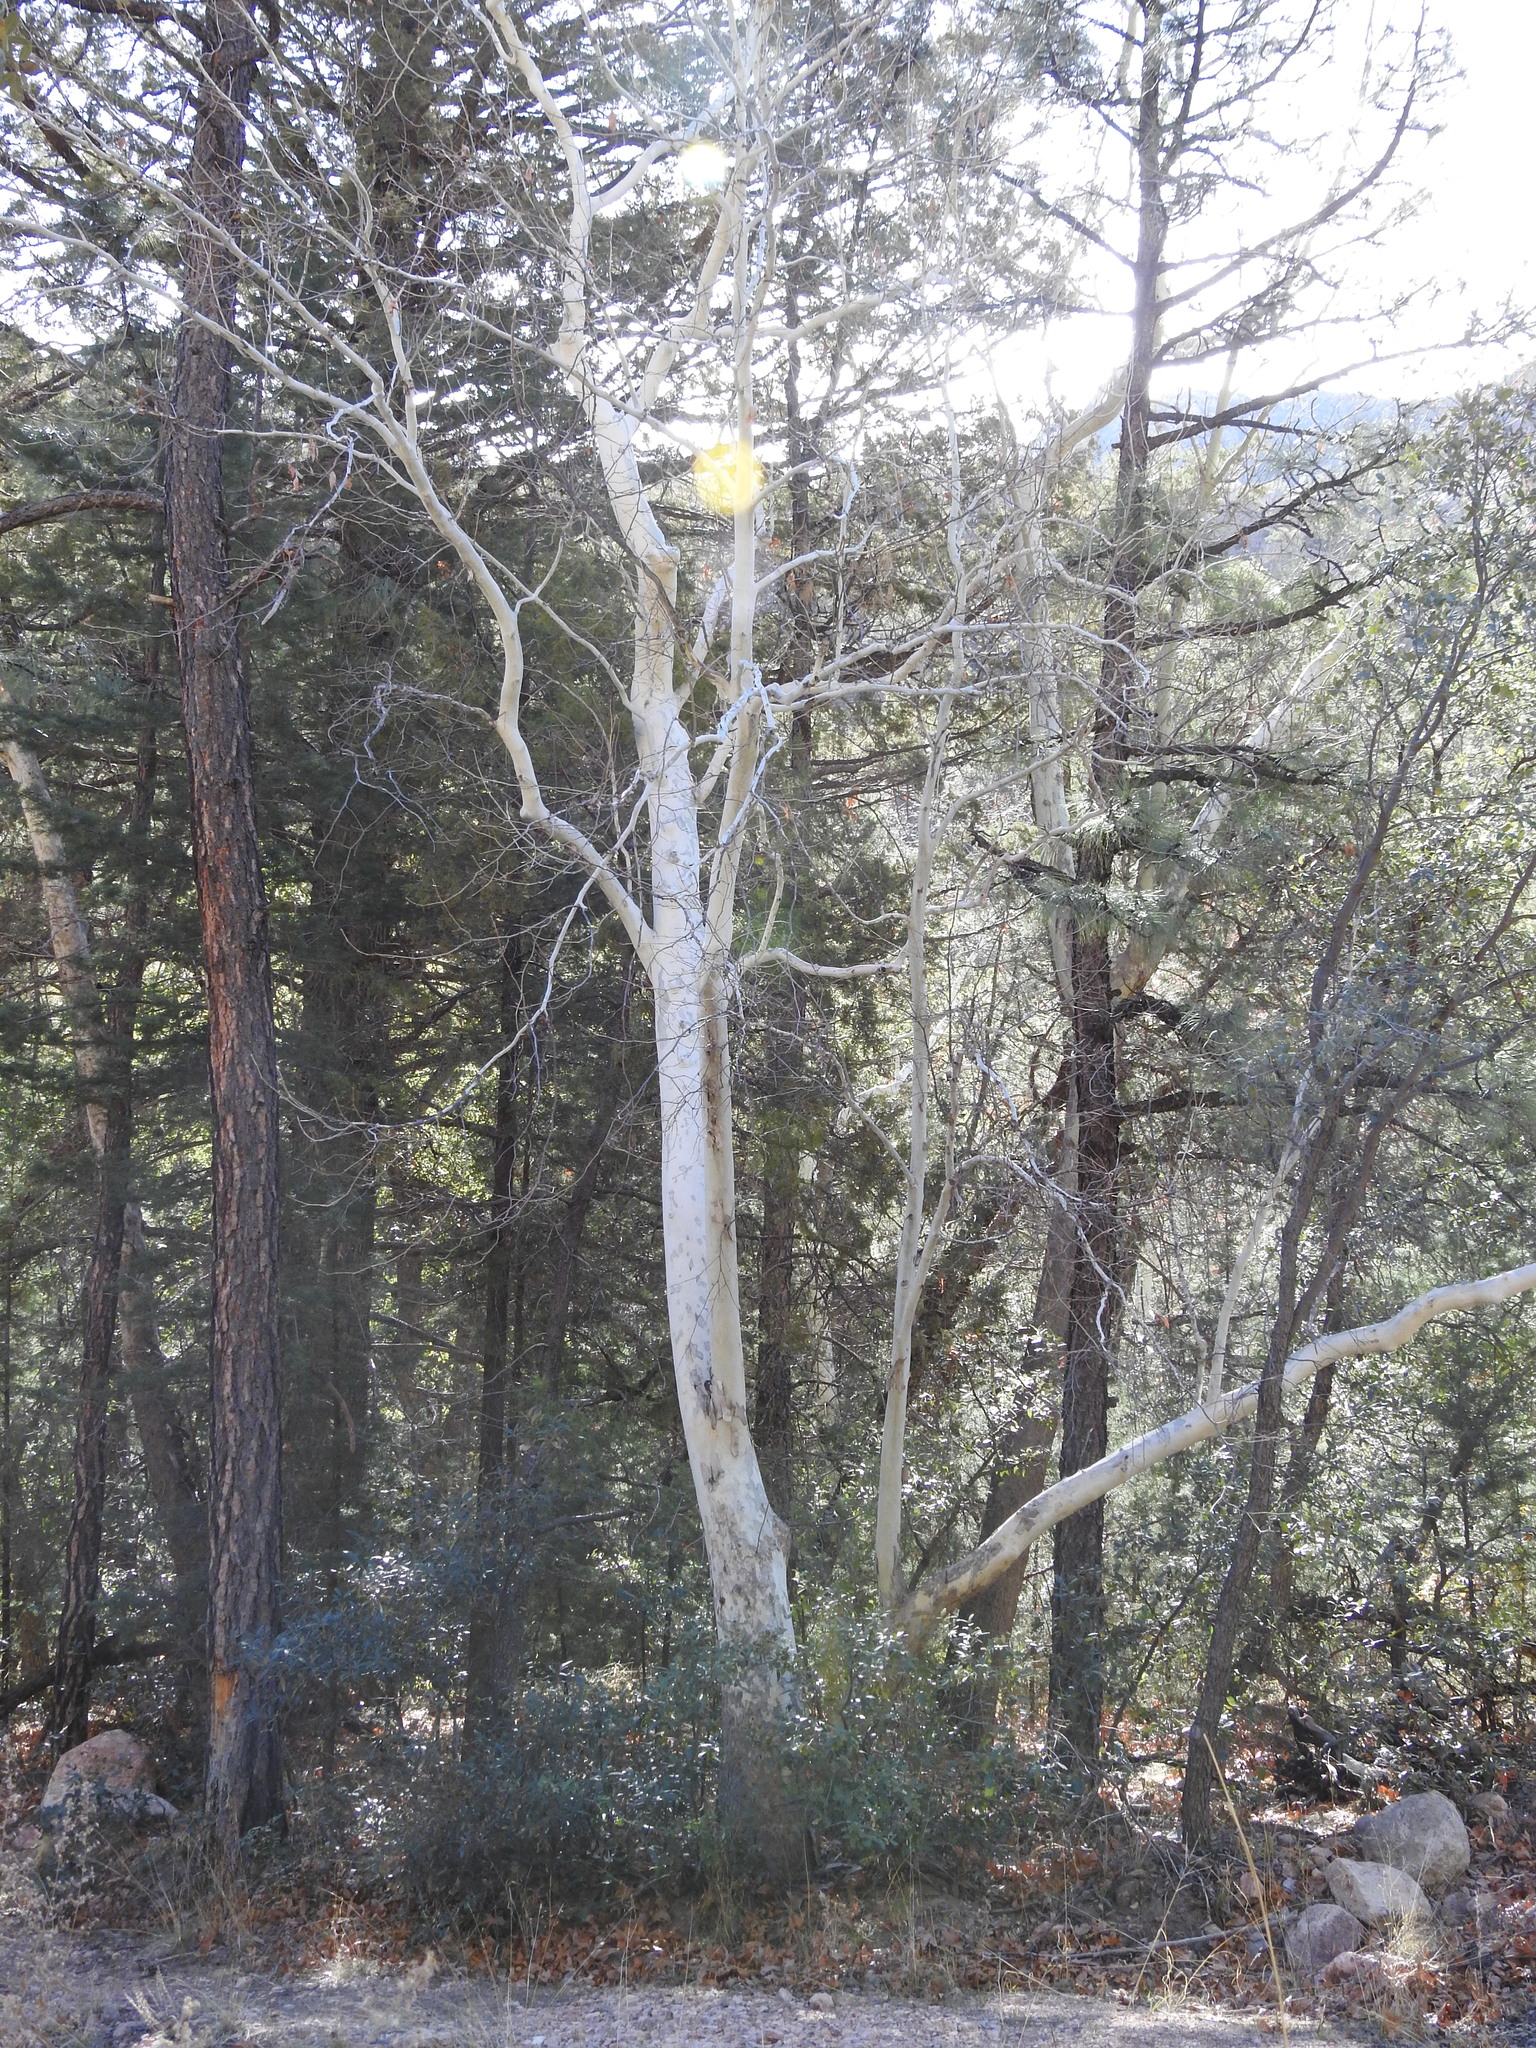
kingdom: Plantae
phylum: Tracheophyta
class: Magnoliopsida
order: Proteales
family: Platanaceae
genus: Platanus
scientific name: Platanus wrightii
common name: Arizona sycamore
